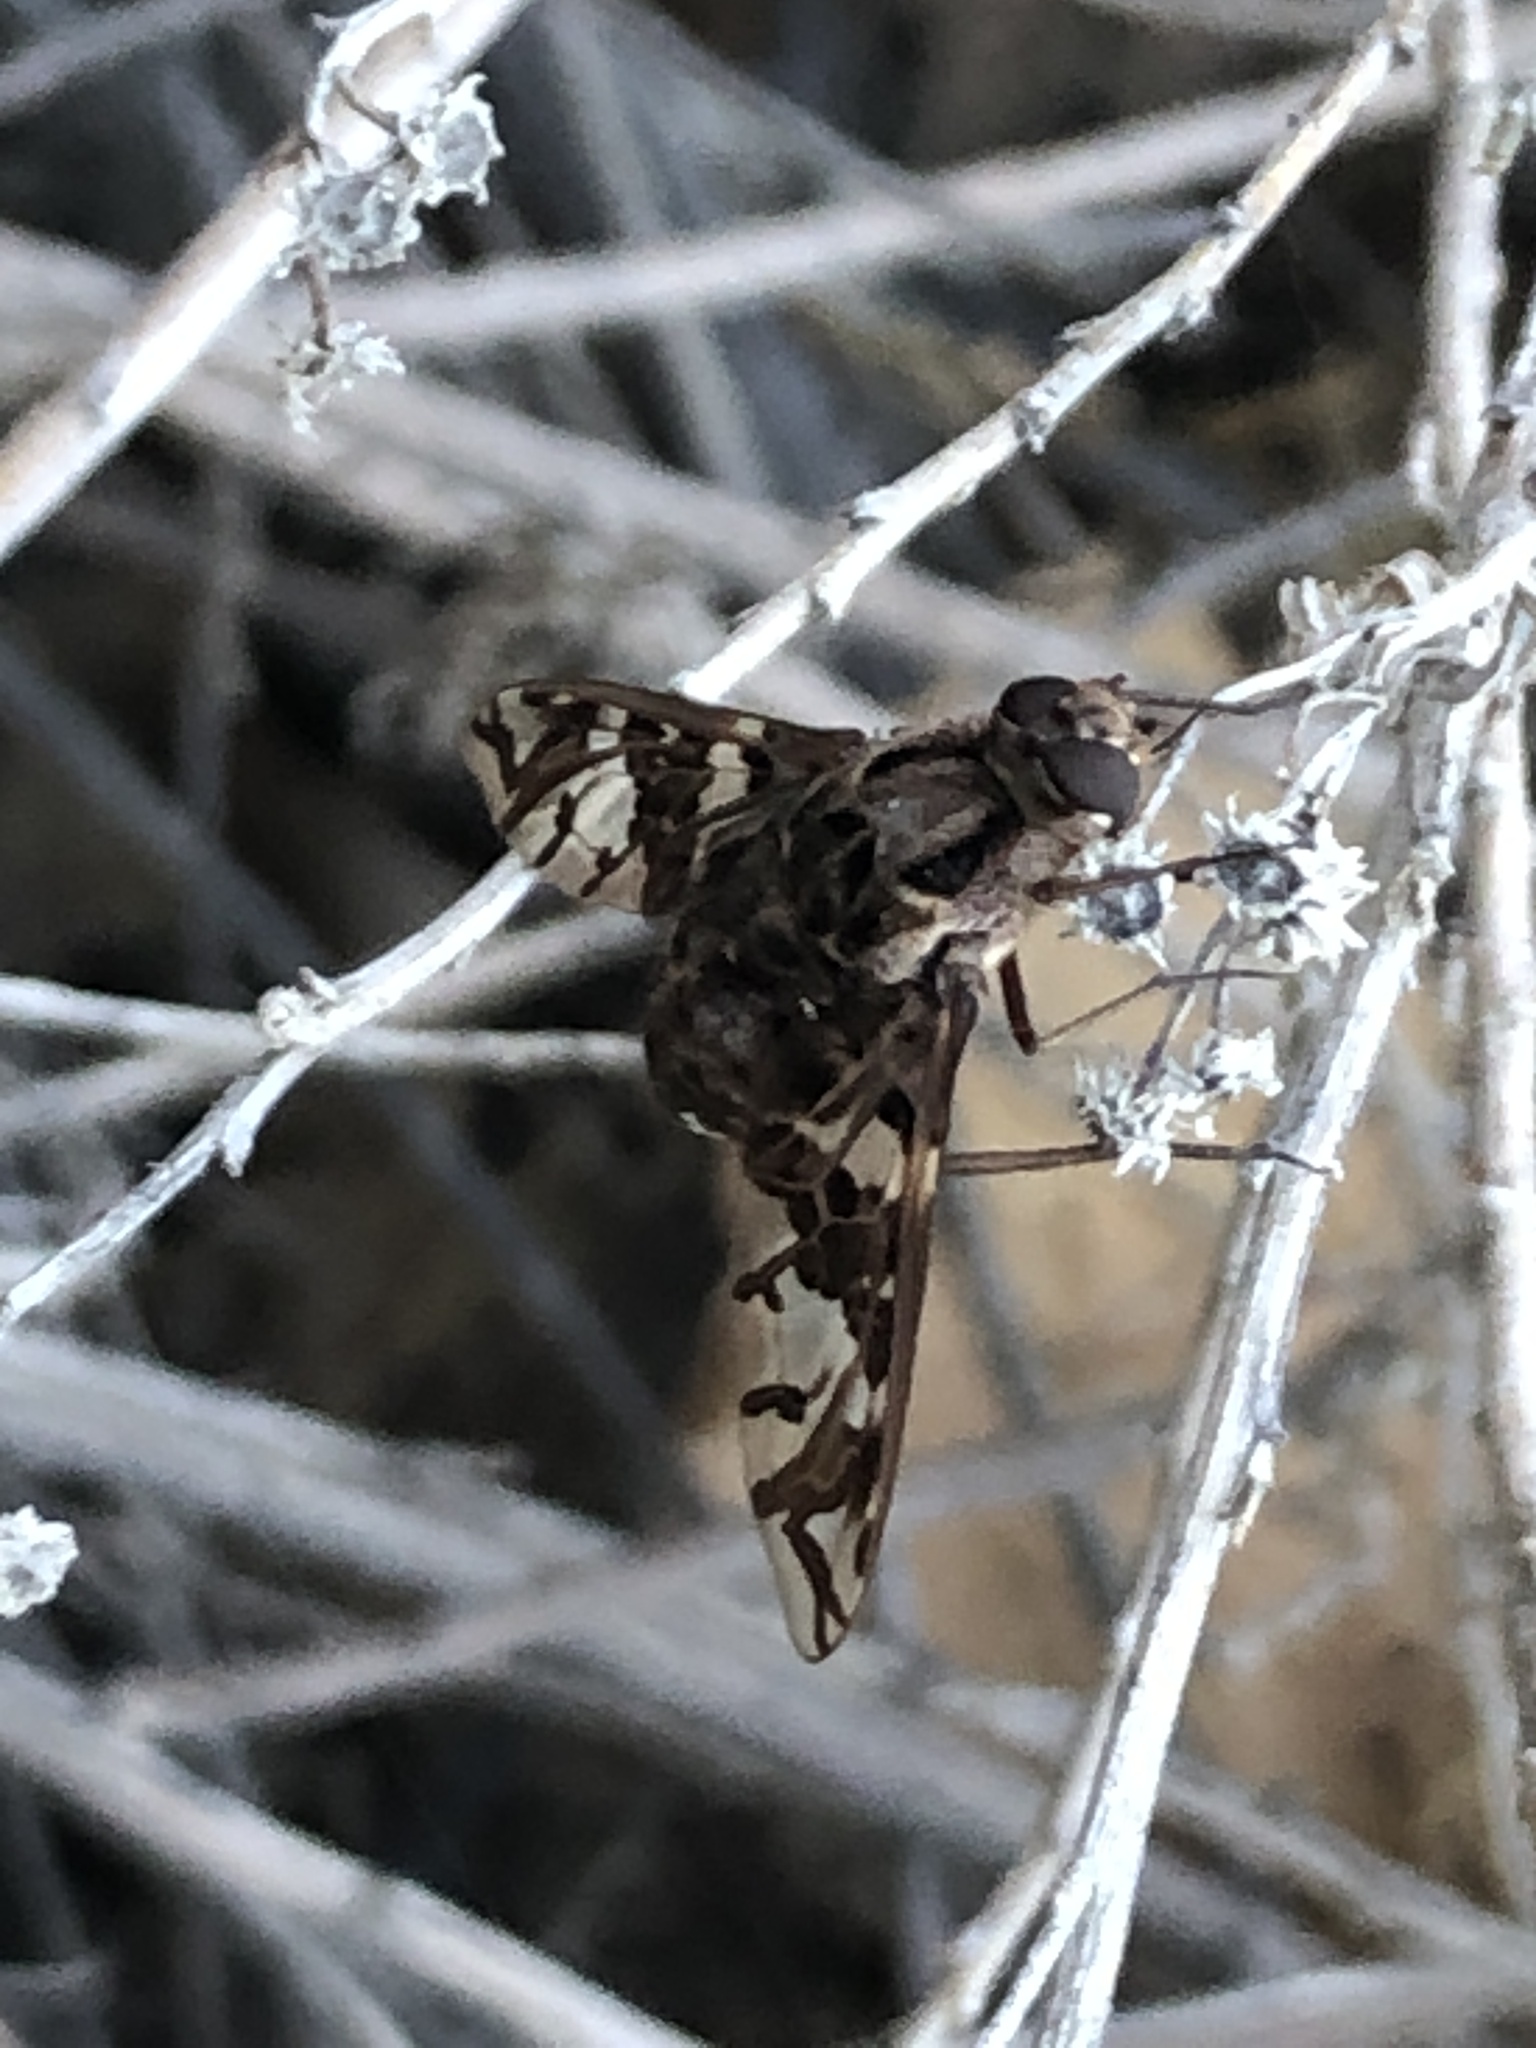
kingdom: Animalia
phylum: Arthropoda
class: Insecta
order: Diptera
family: Bombyliidae
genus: Xenox
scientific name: Xenox habrosus
